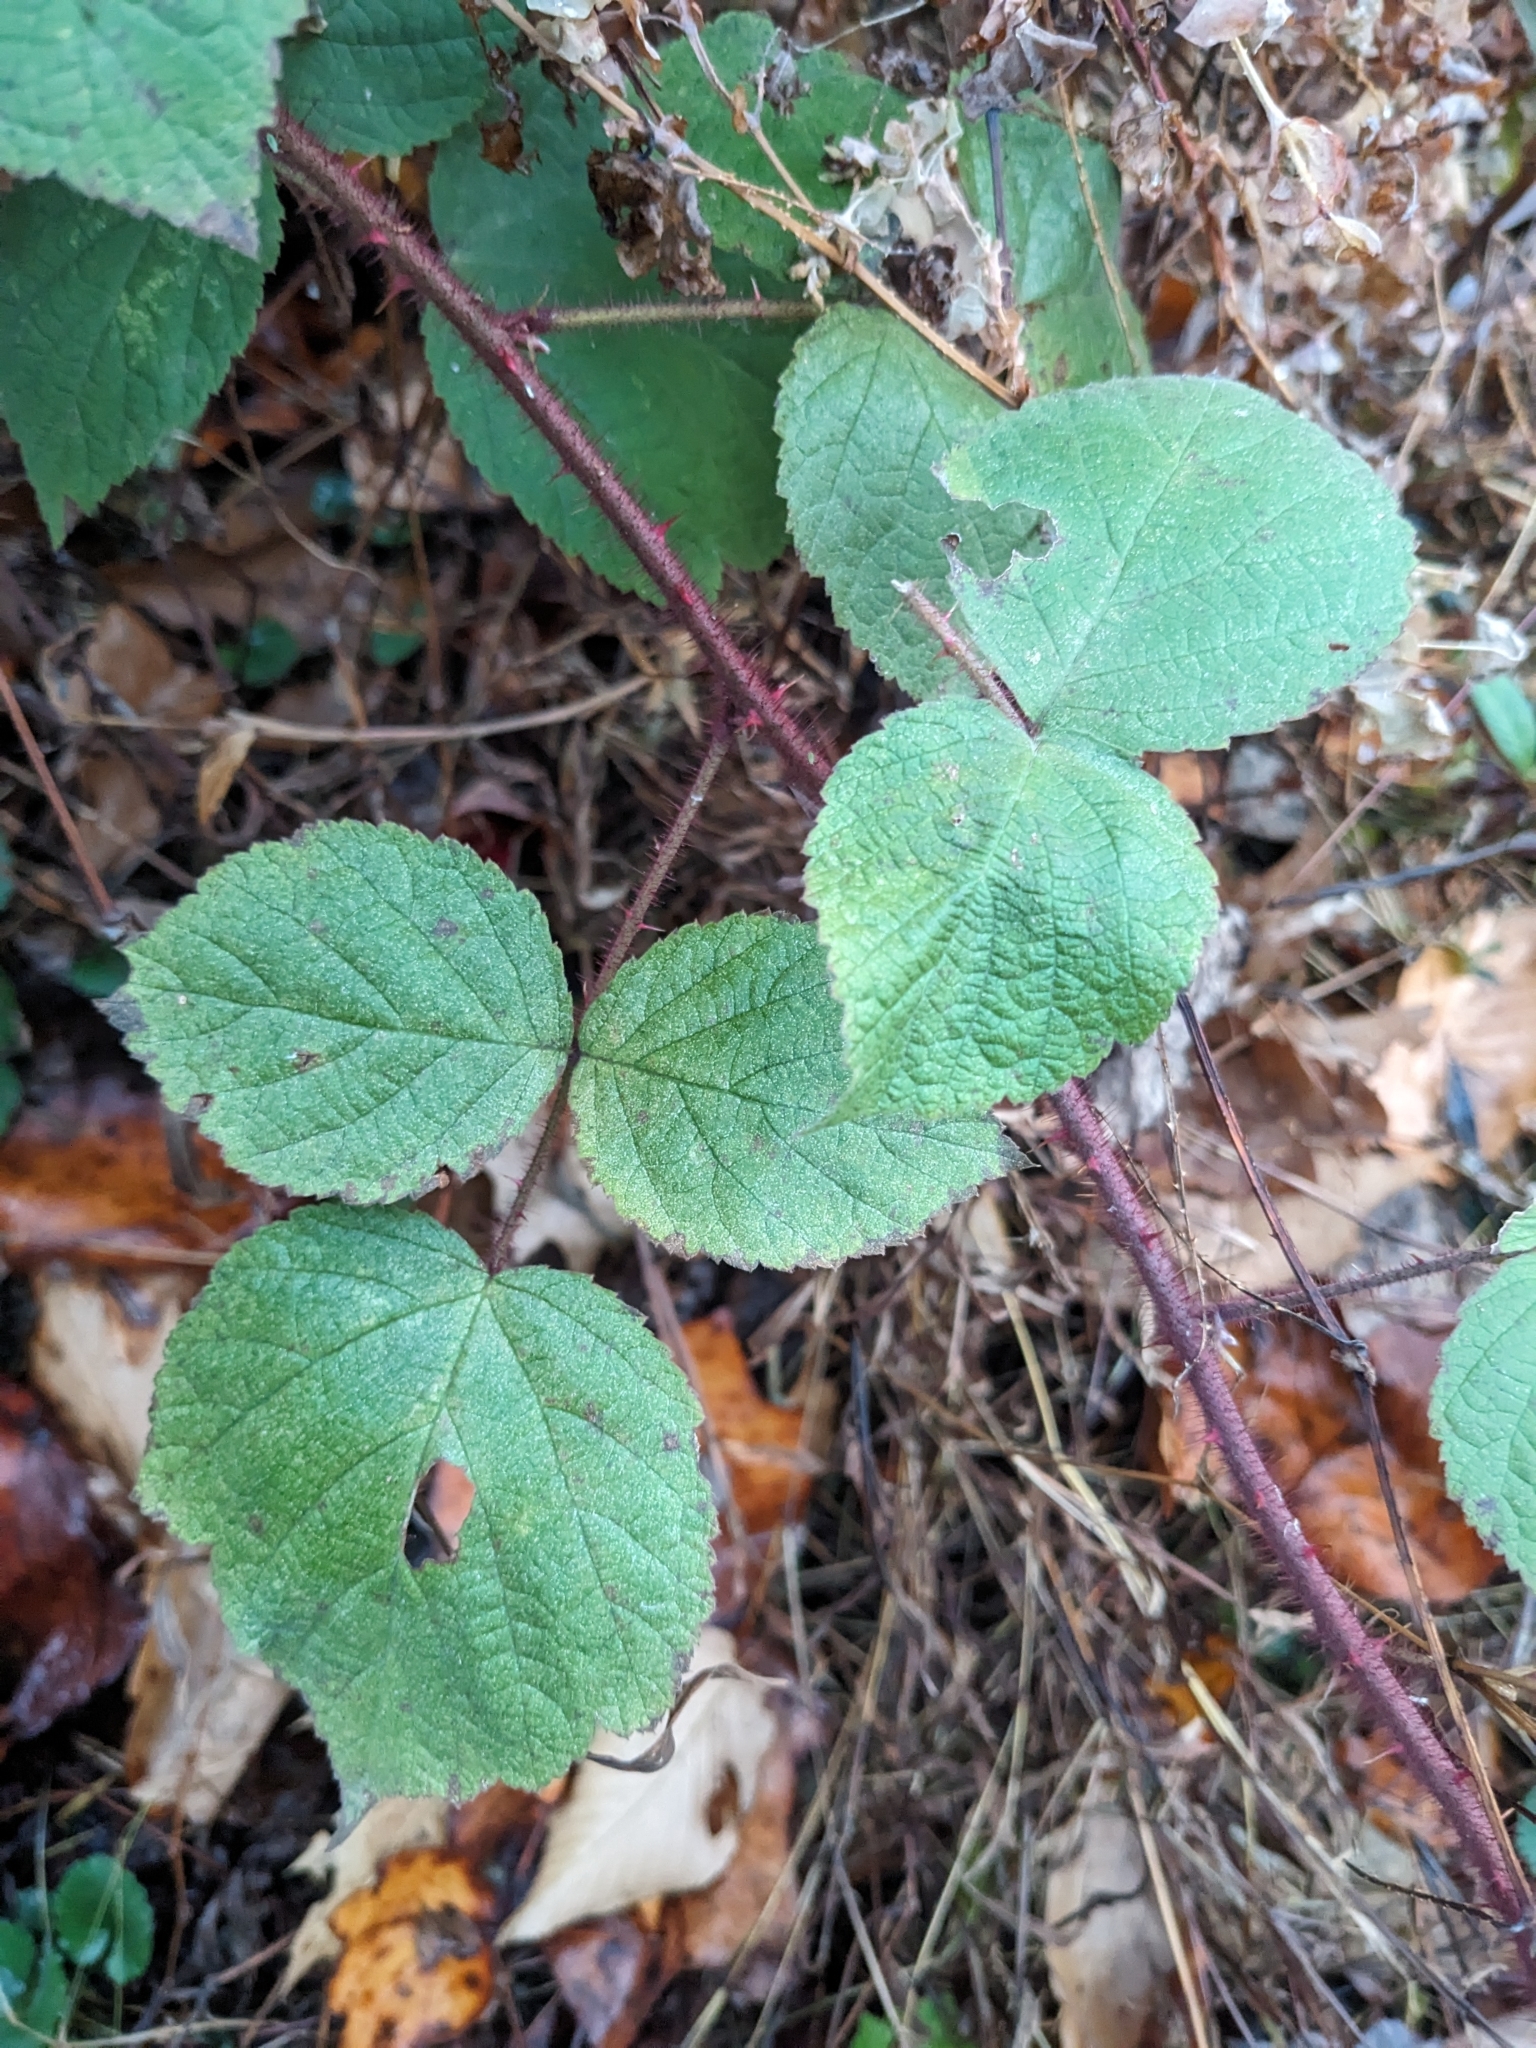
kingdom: Plantae
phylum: Tracheophyta
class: Magnoliopsida
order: Rosales
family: Rosaceae
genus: Rubus
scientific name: Rubus phoenicolasius
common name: Japanese wineberry
